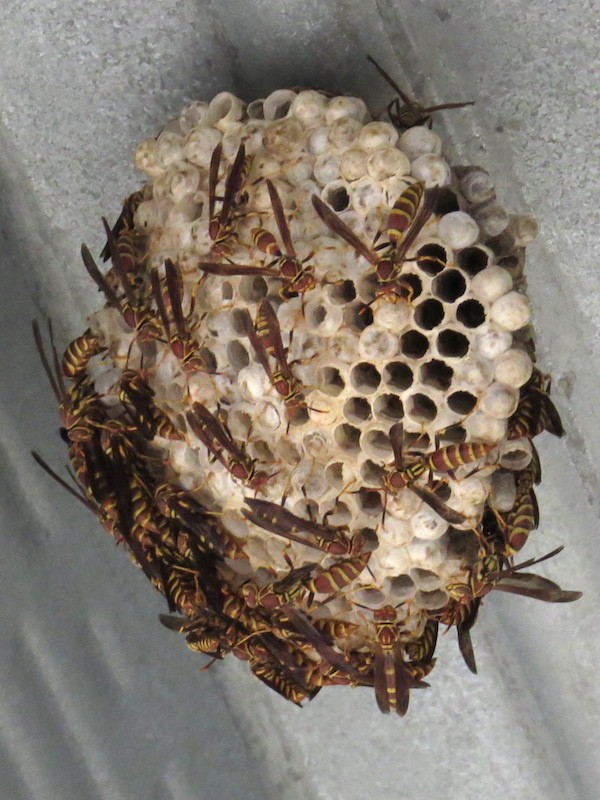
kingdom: Animalia
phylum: Arthropoda
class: Insecta
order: Hymenoptera
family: Eumenidae
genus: Polistes
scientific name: Polistes exclamans
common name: Paper wasp
